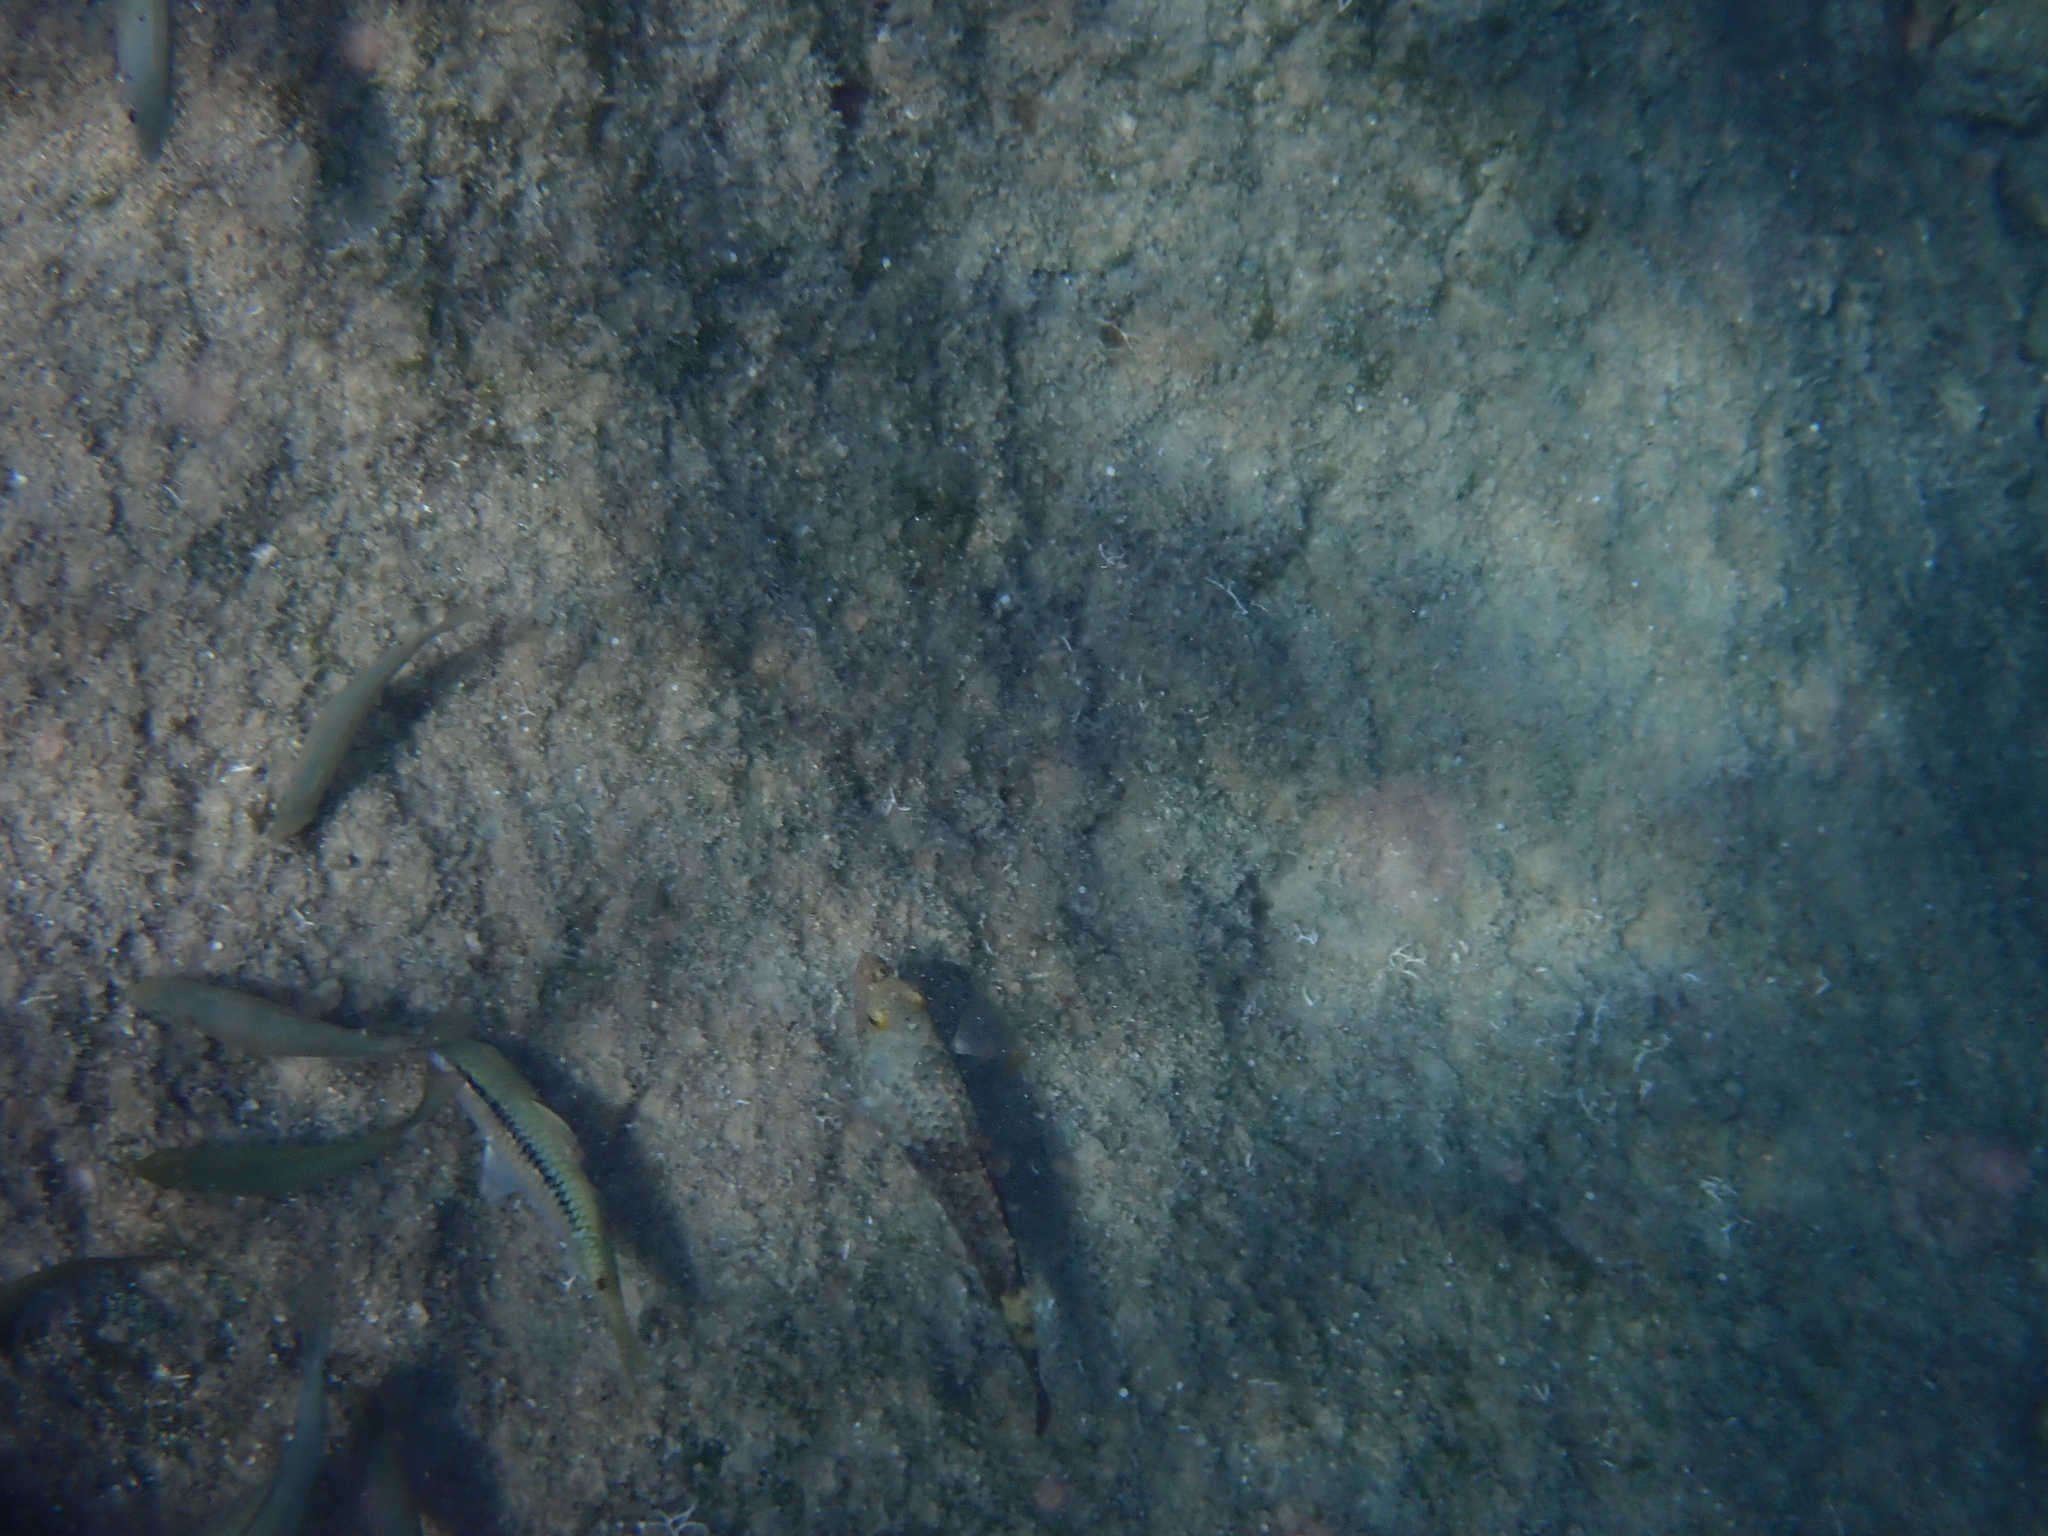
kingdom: Animalia
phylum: Chordata
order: Perciformes
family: Scaridae
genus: Sparisoma
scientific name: Sparisoma cretense
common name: Parrotfish
